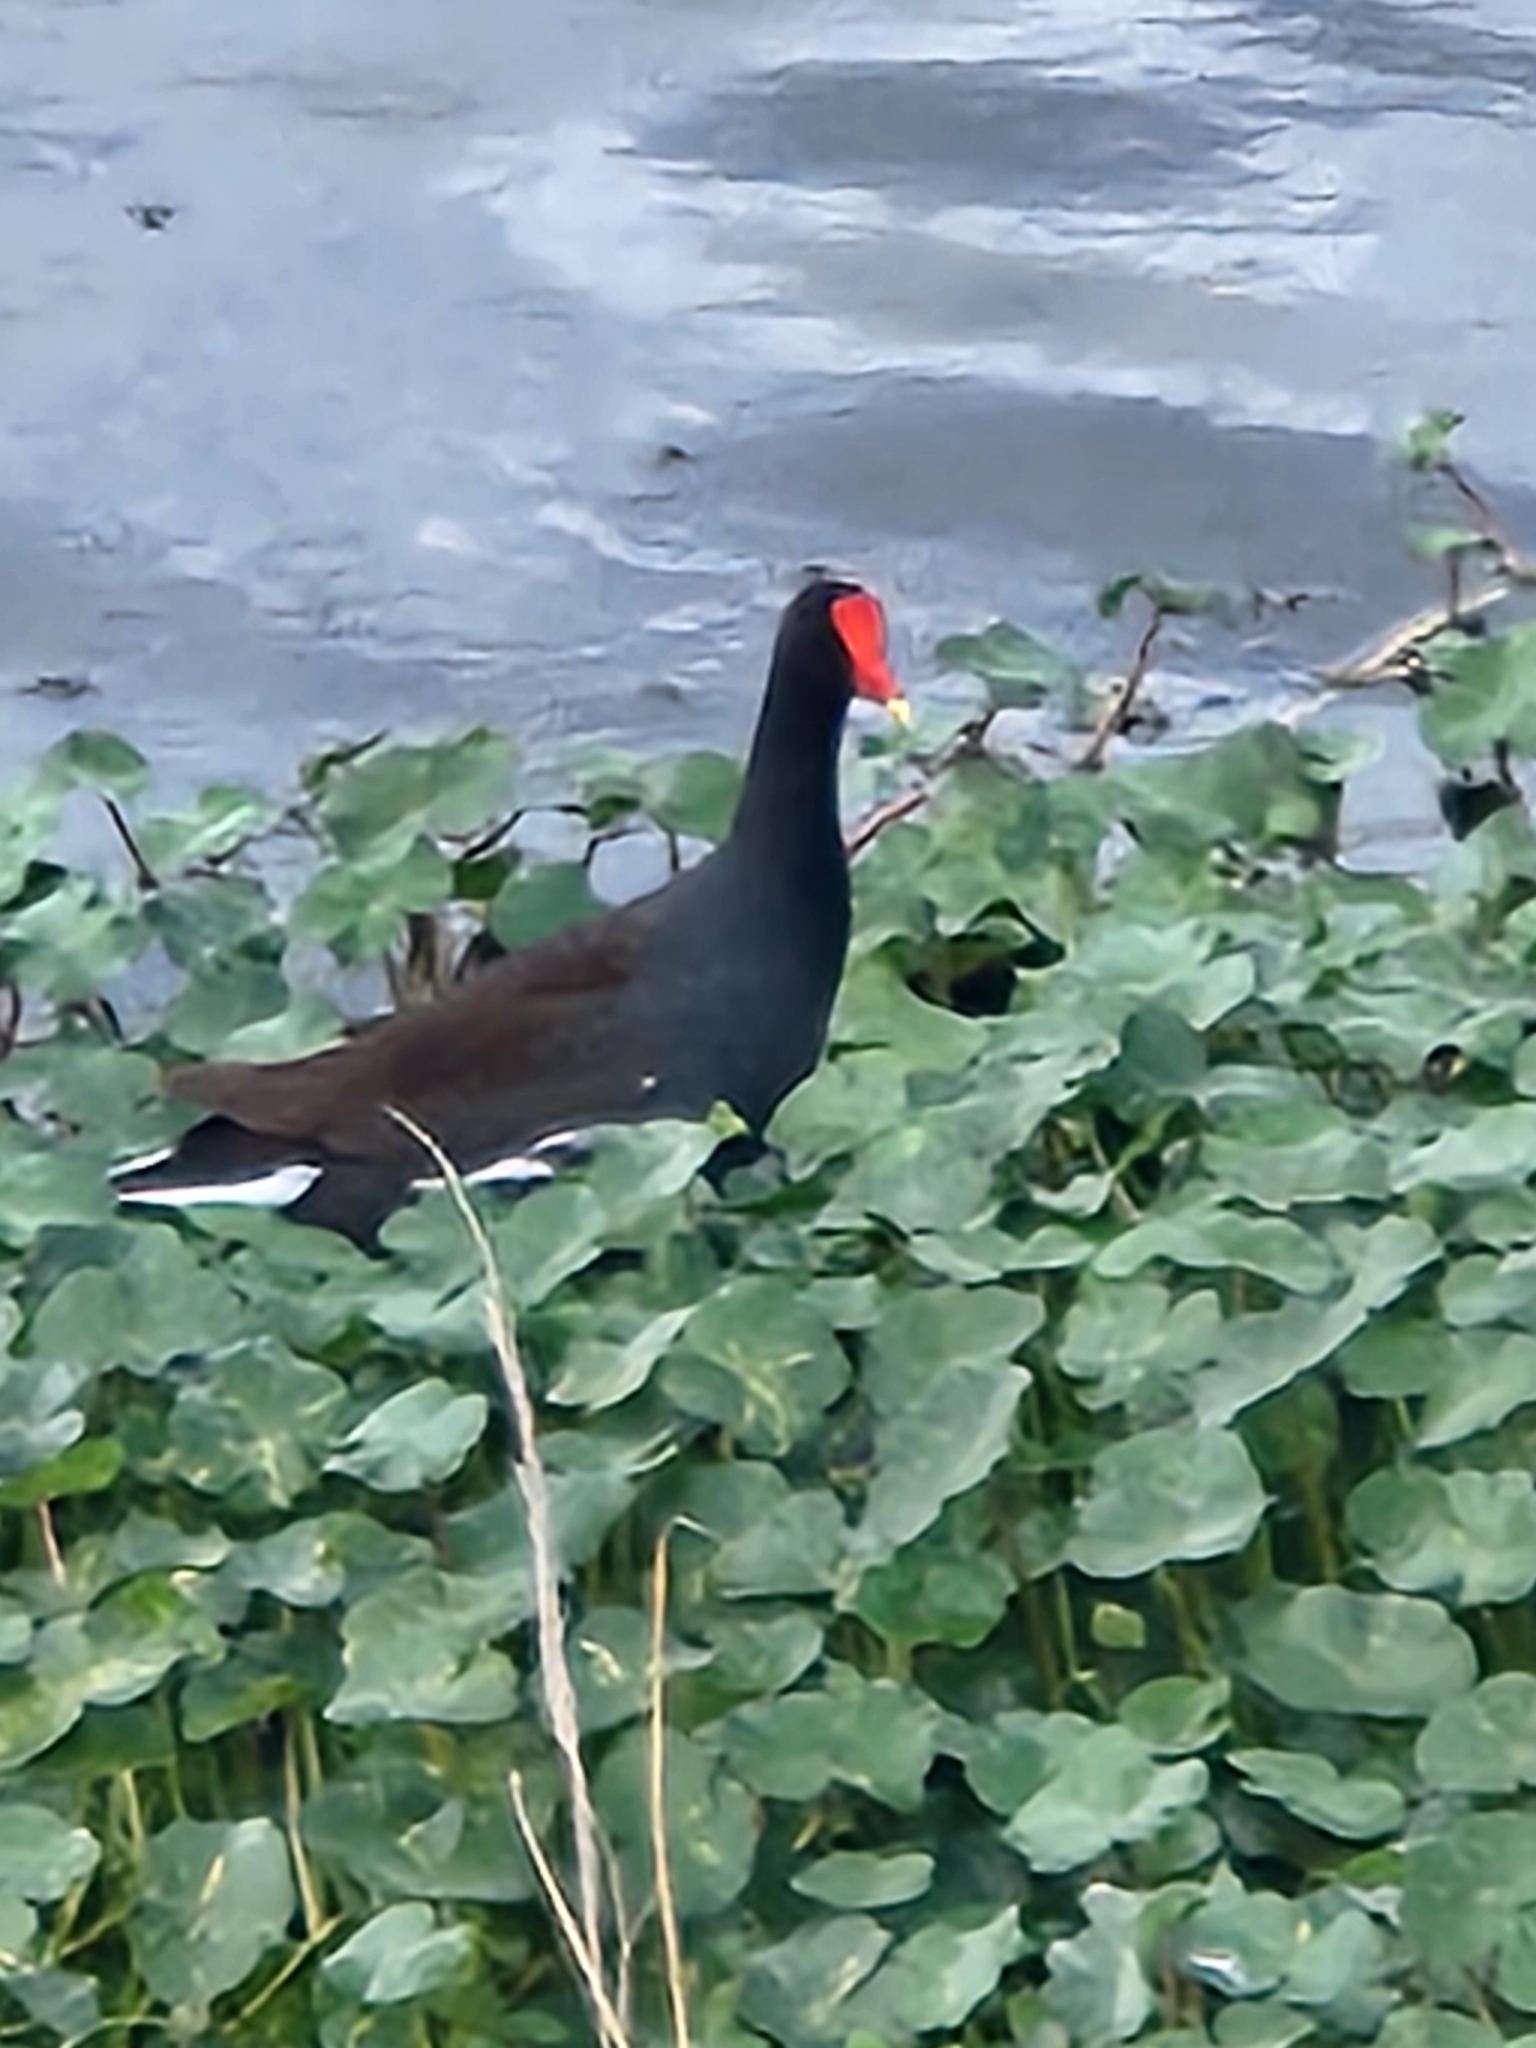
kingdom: Animalia
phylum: Chordata
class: Aves
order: Gruiformes
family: Rallidae
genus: Gallinula
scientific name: Gallinula chloropus
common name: Common moorhen
